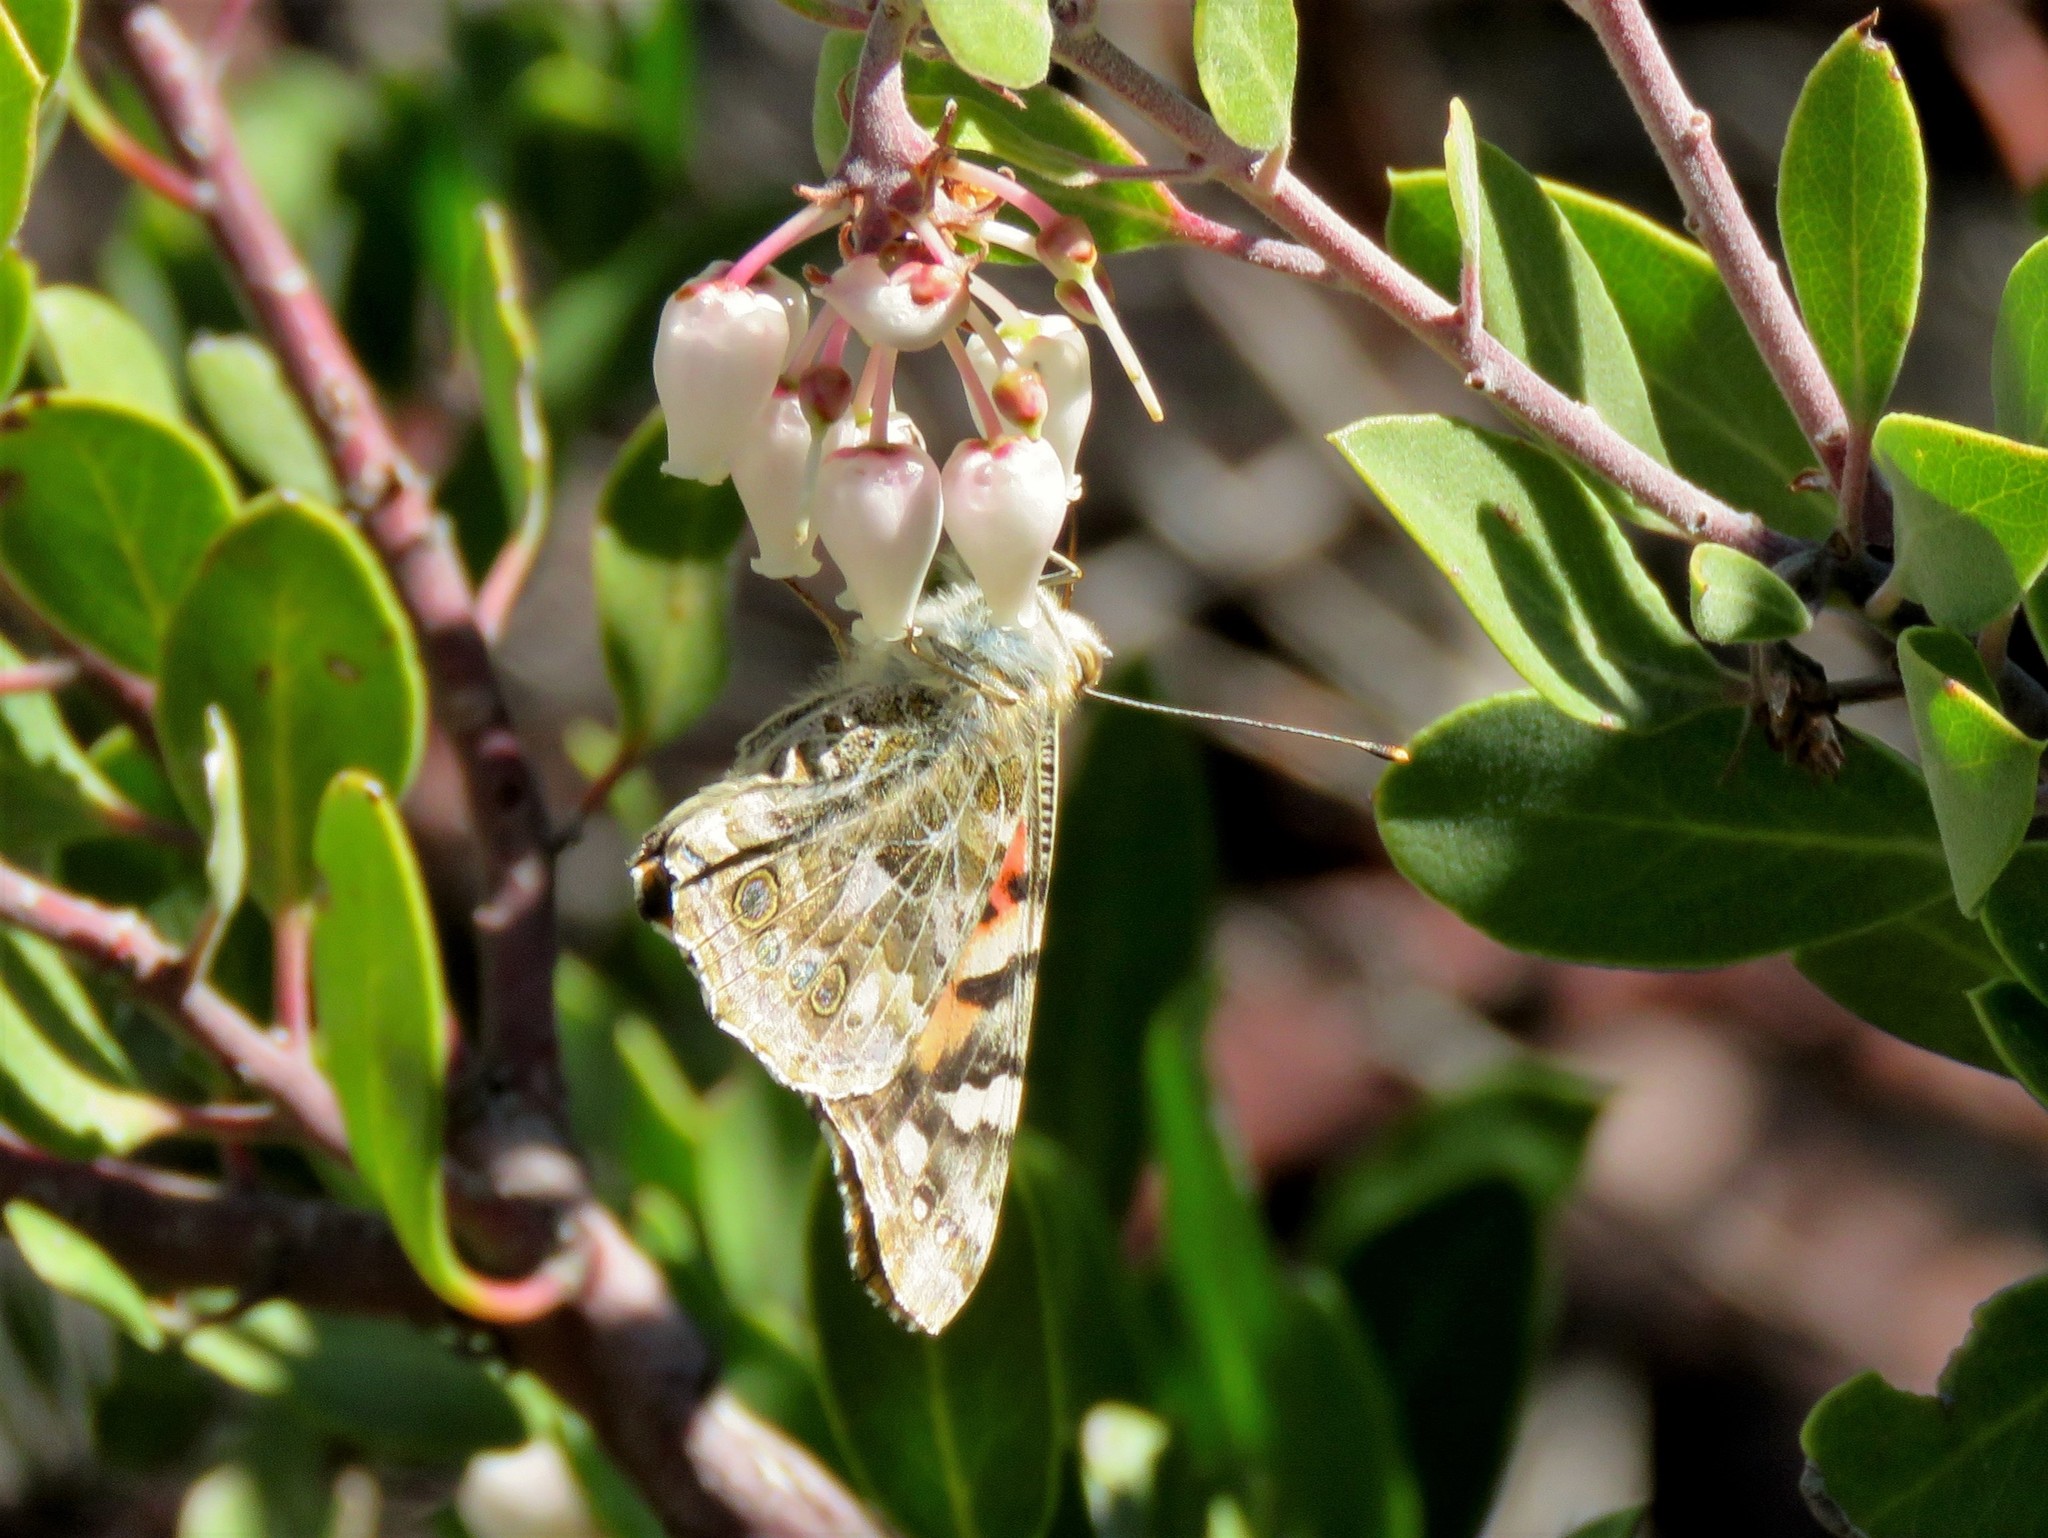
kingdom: Animalia
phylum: Arthropoda
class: Insecta
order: Lepidoptera
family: Nymphalidae
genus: Vanessa
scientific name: Vanessa cardui
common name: Painted lady
